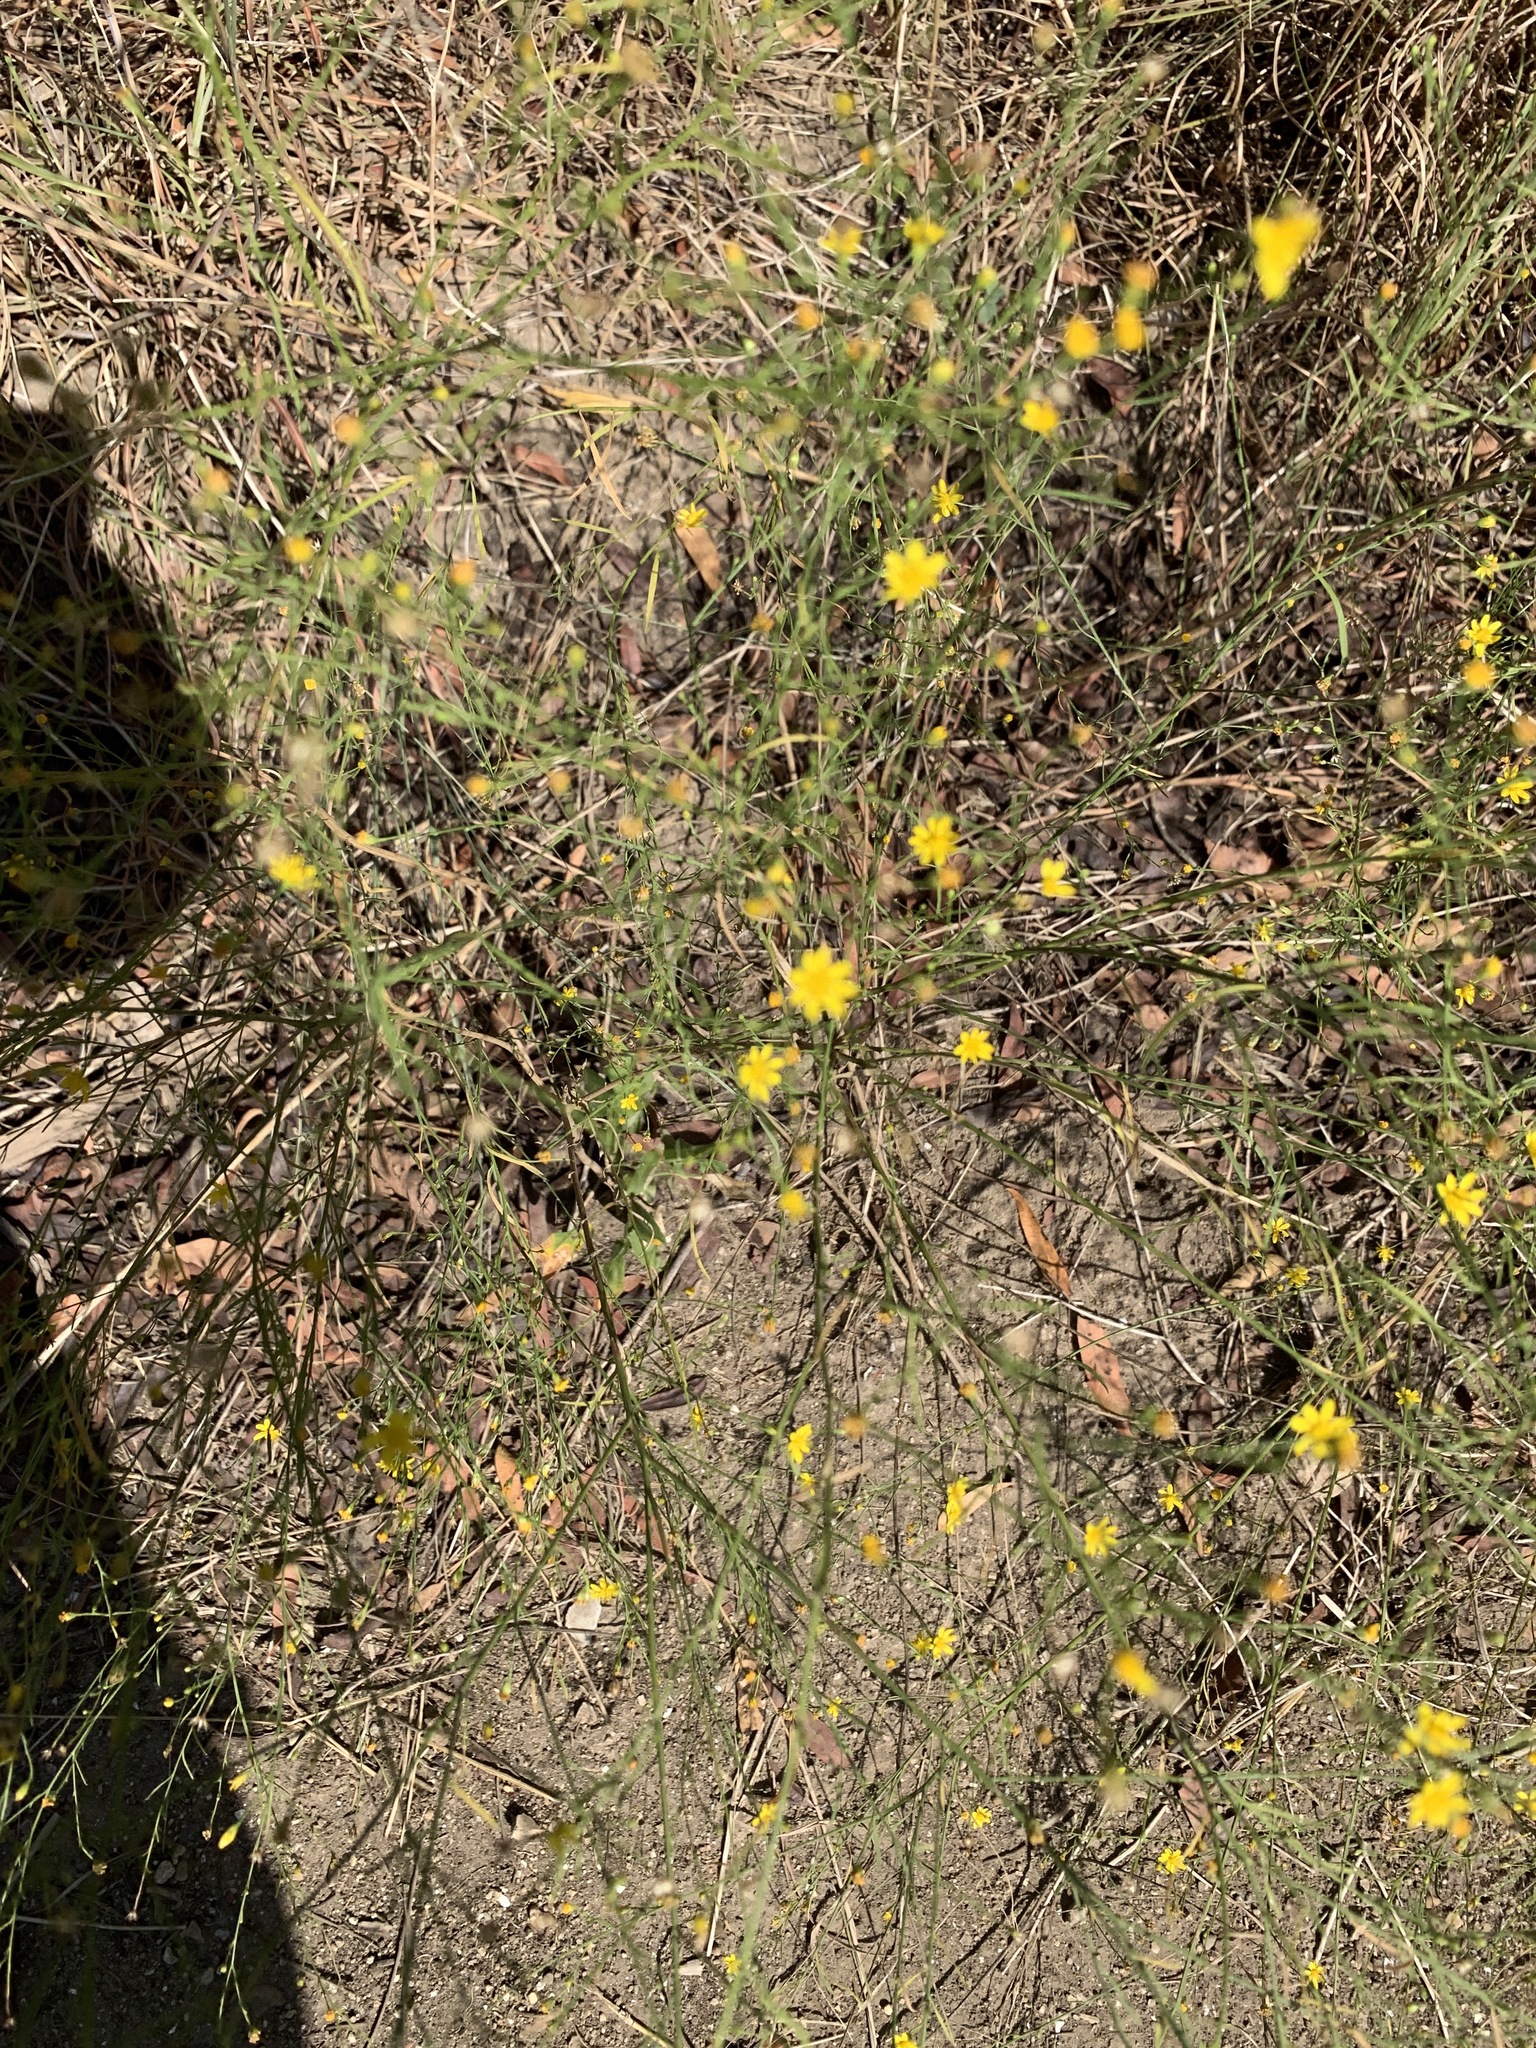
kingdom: Plantae
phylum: Tracheophyta
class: Magnoliopsida
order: Asterales
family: Asteraceae
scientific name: Asteraceae
